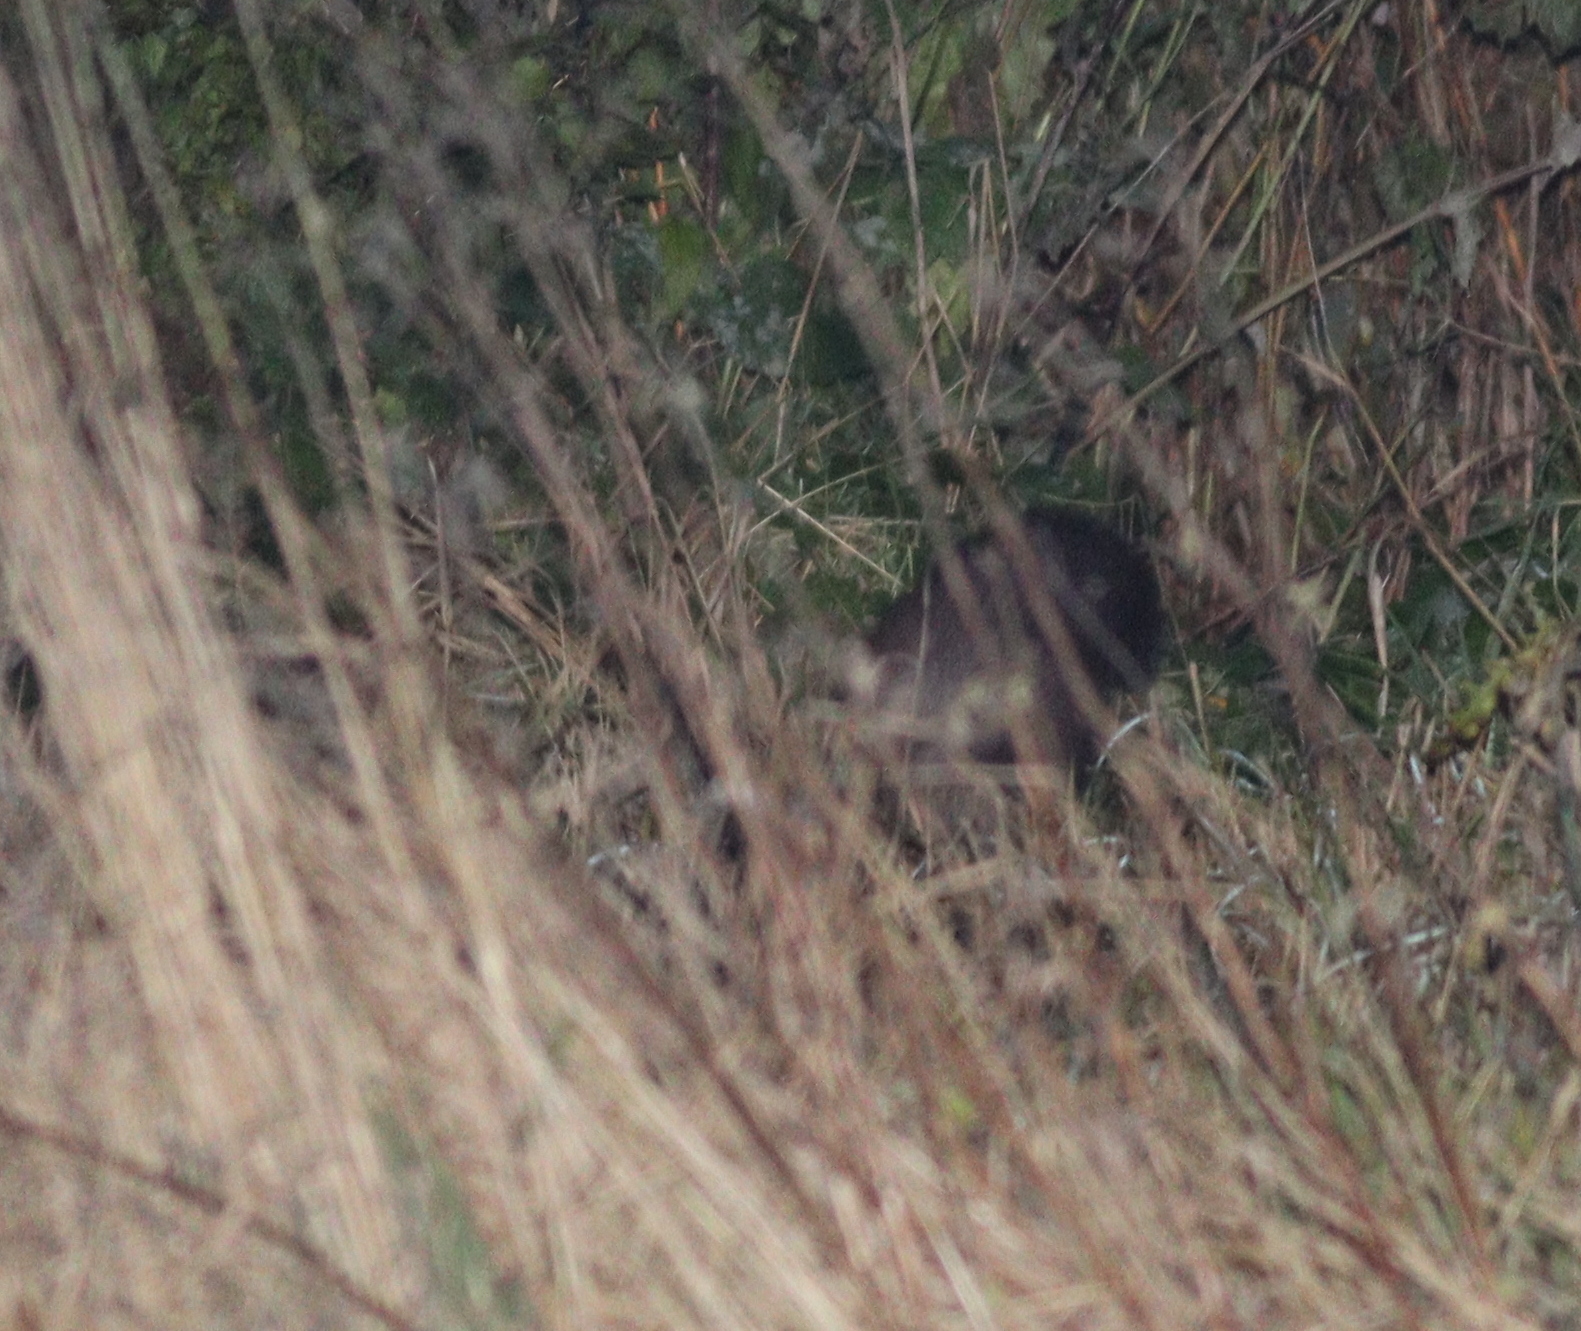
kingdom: Animalia
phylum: Chordata
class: Mammalia
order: Carnivora
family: Mustelidae
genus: Martes
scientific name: Martes foina
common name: Beech marten
